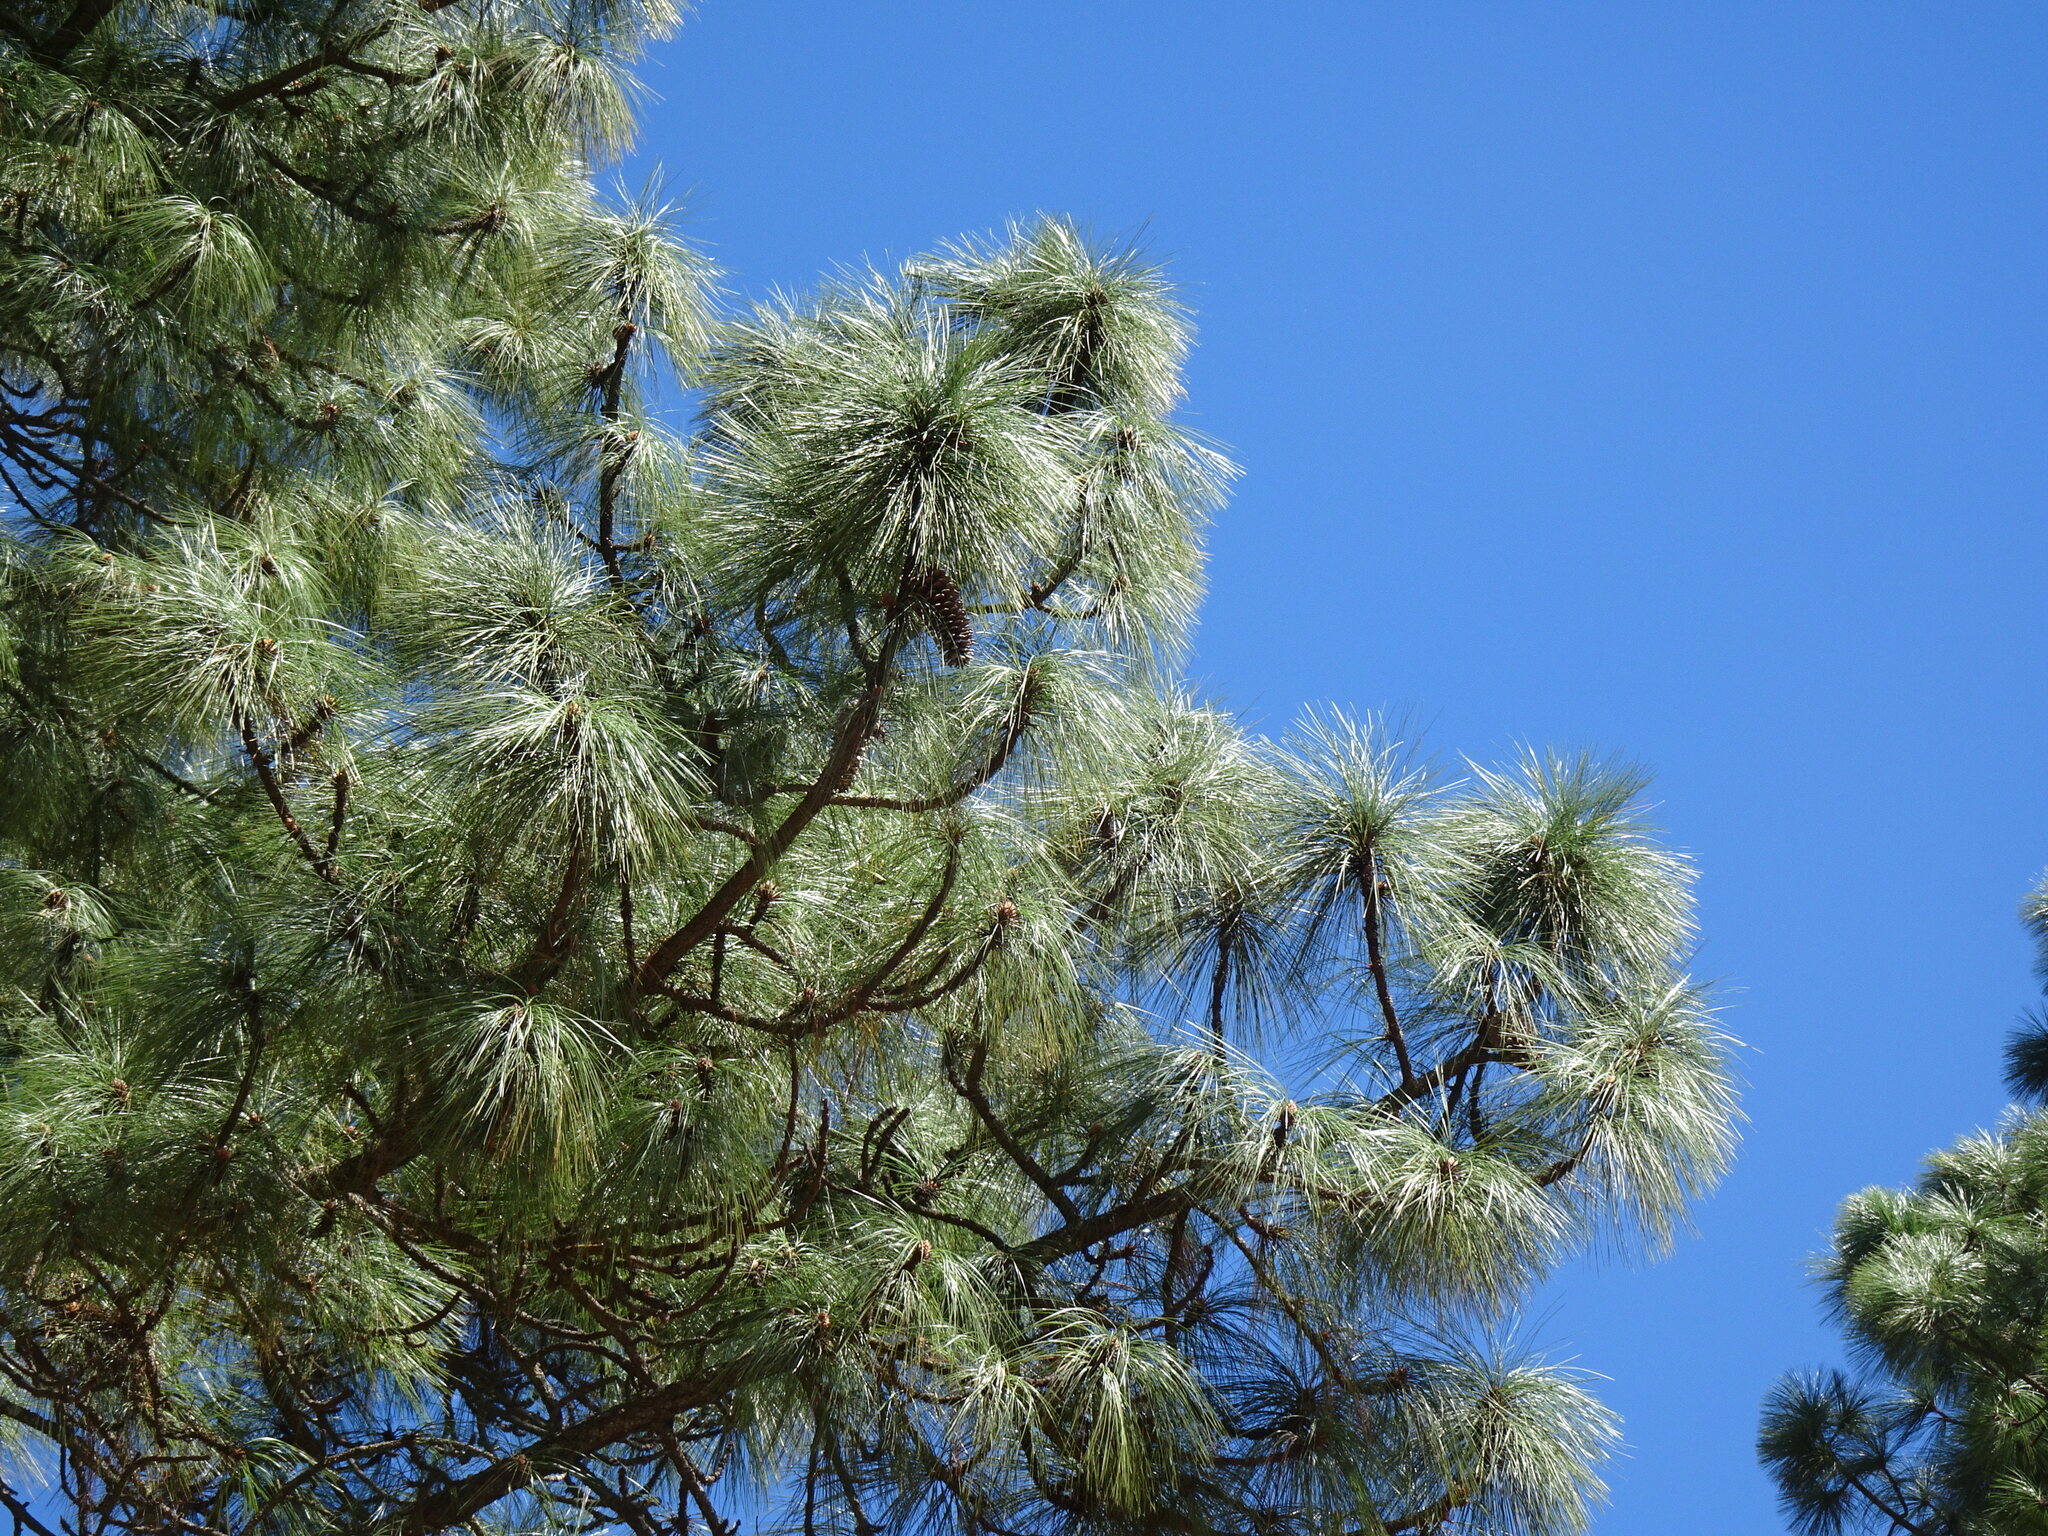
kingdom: Plantae
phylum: Tracheophyta
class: Pinopsida
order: Pinales
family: Pinaceae
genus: Pinus
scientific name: Pinus devoniana
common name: Michoacan pine
